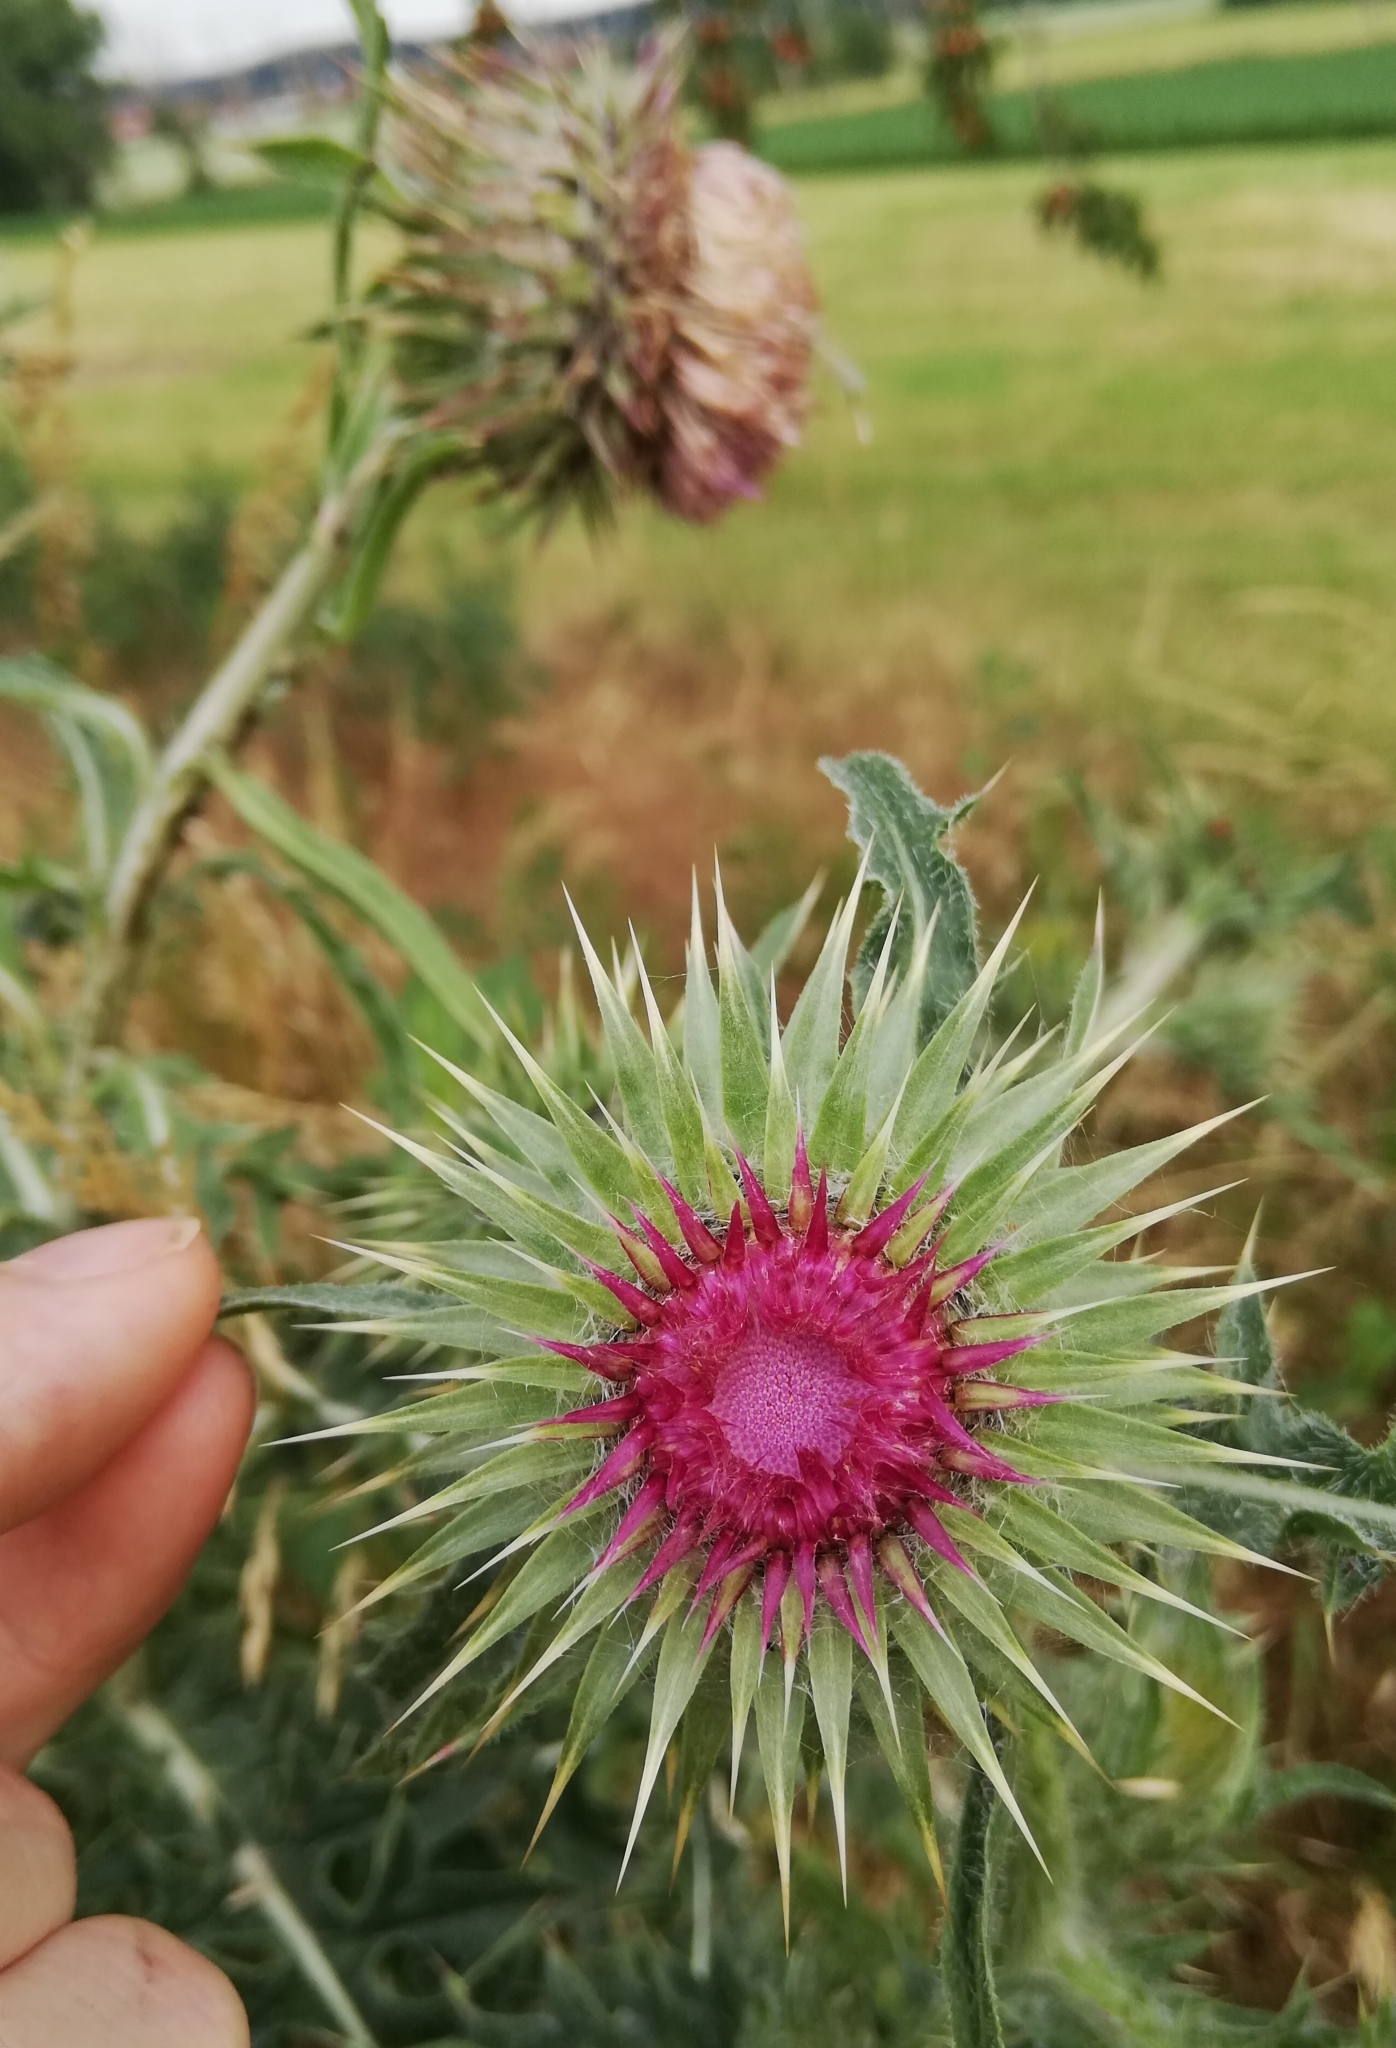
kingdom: Plantae
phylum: Tracheophyta
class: Magnoliopsida
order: Asterales
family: Asteraceae
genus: Carduus
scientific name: Carduus nutans
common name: Musk thistle
